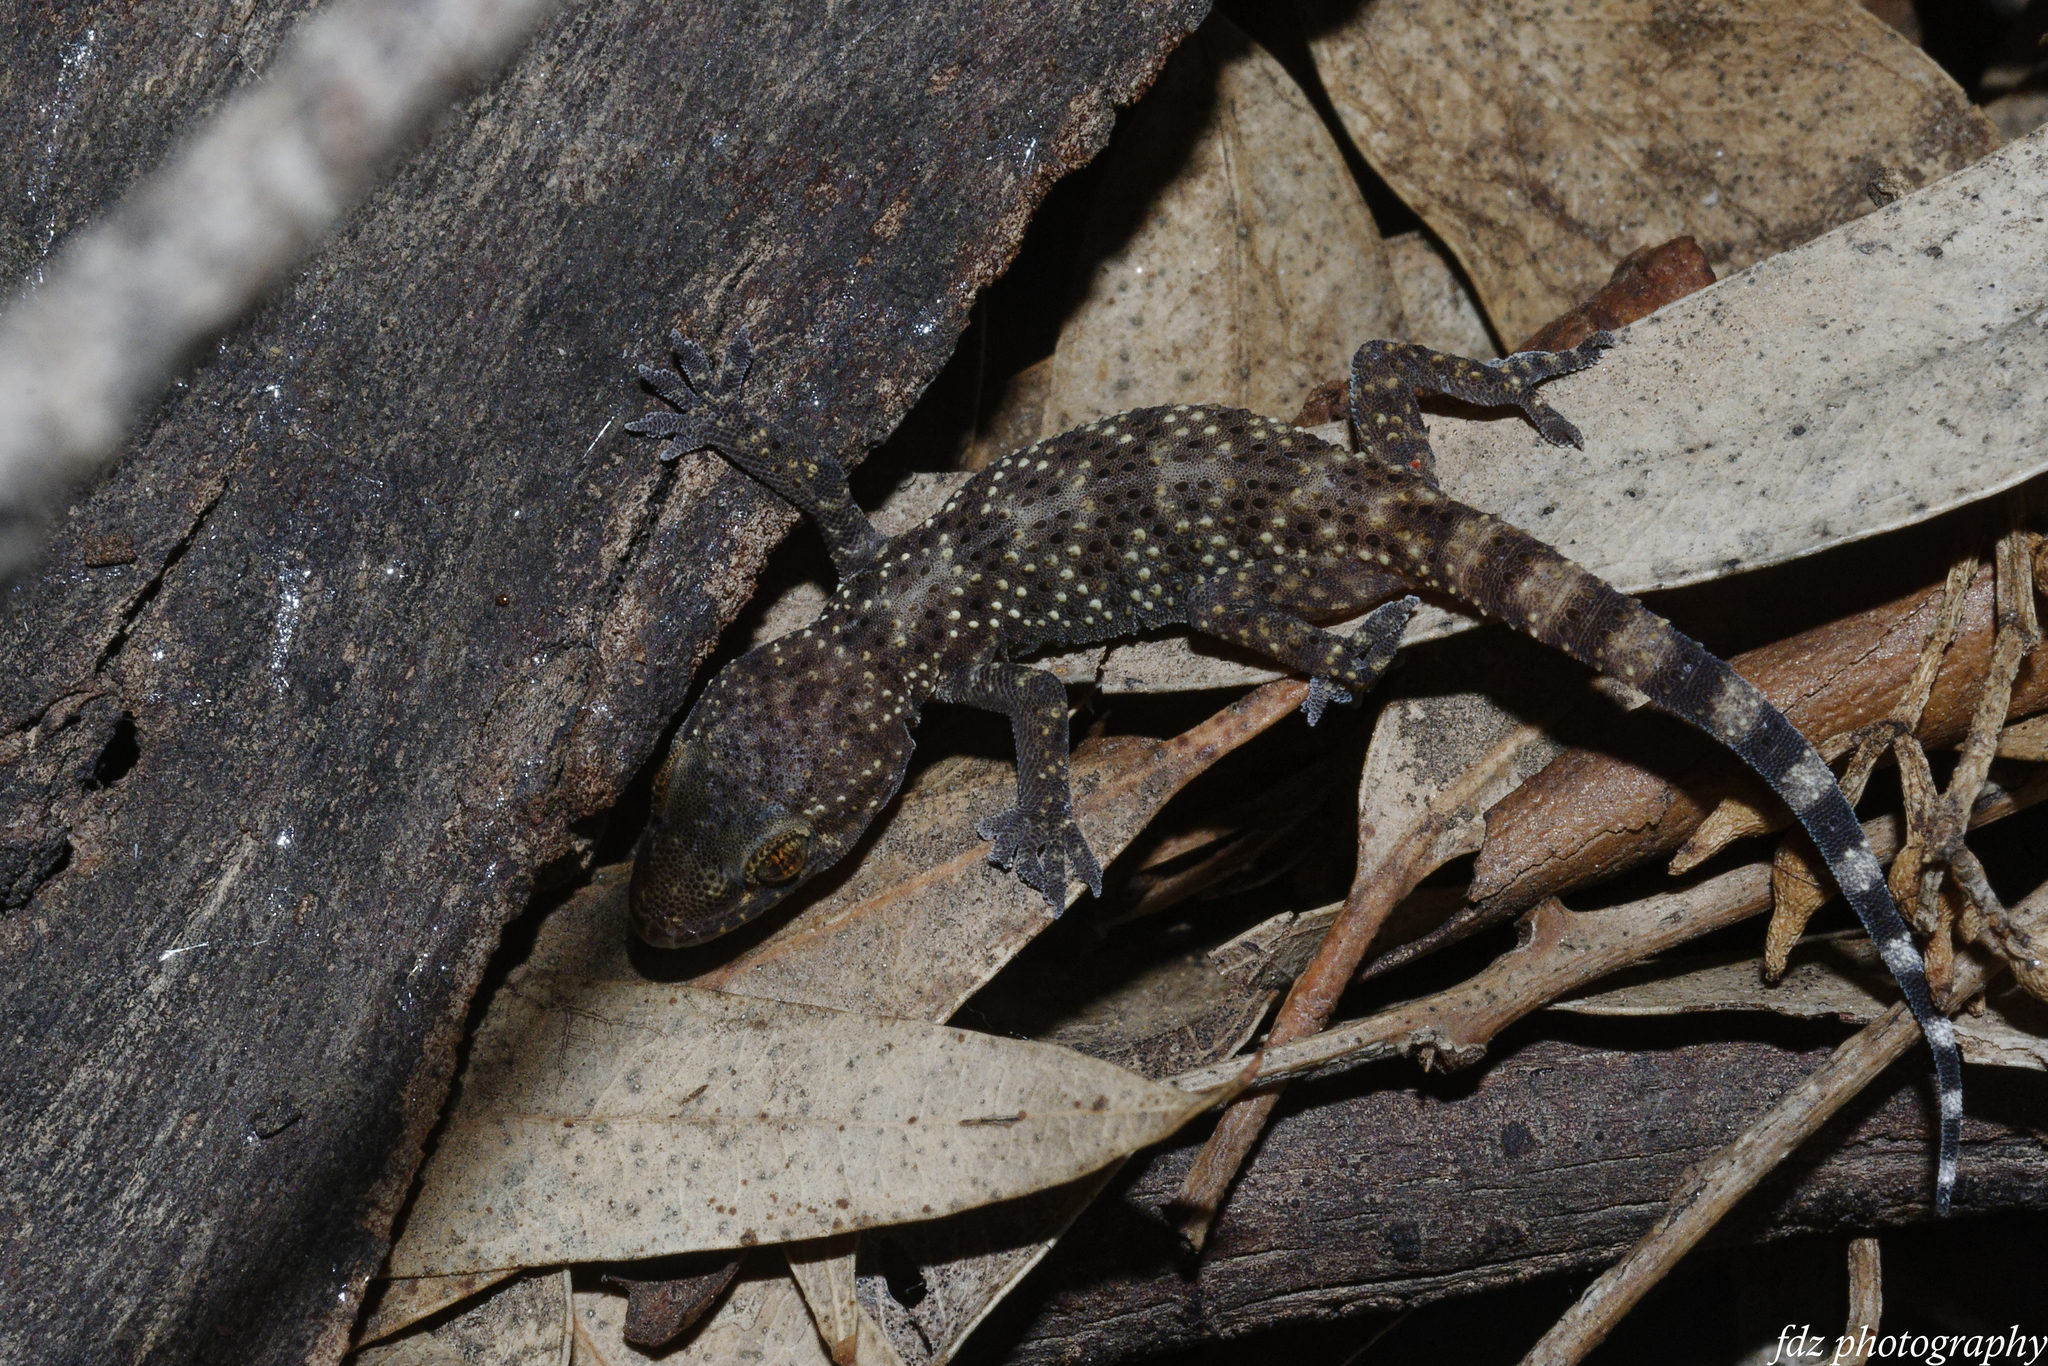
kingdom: Animalia
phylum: Chordata
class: Squamata
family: Gekkonidae
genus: Hemidactylus
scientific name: Hemidactylus turcicus
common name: Turkish gecko
